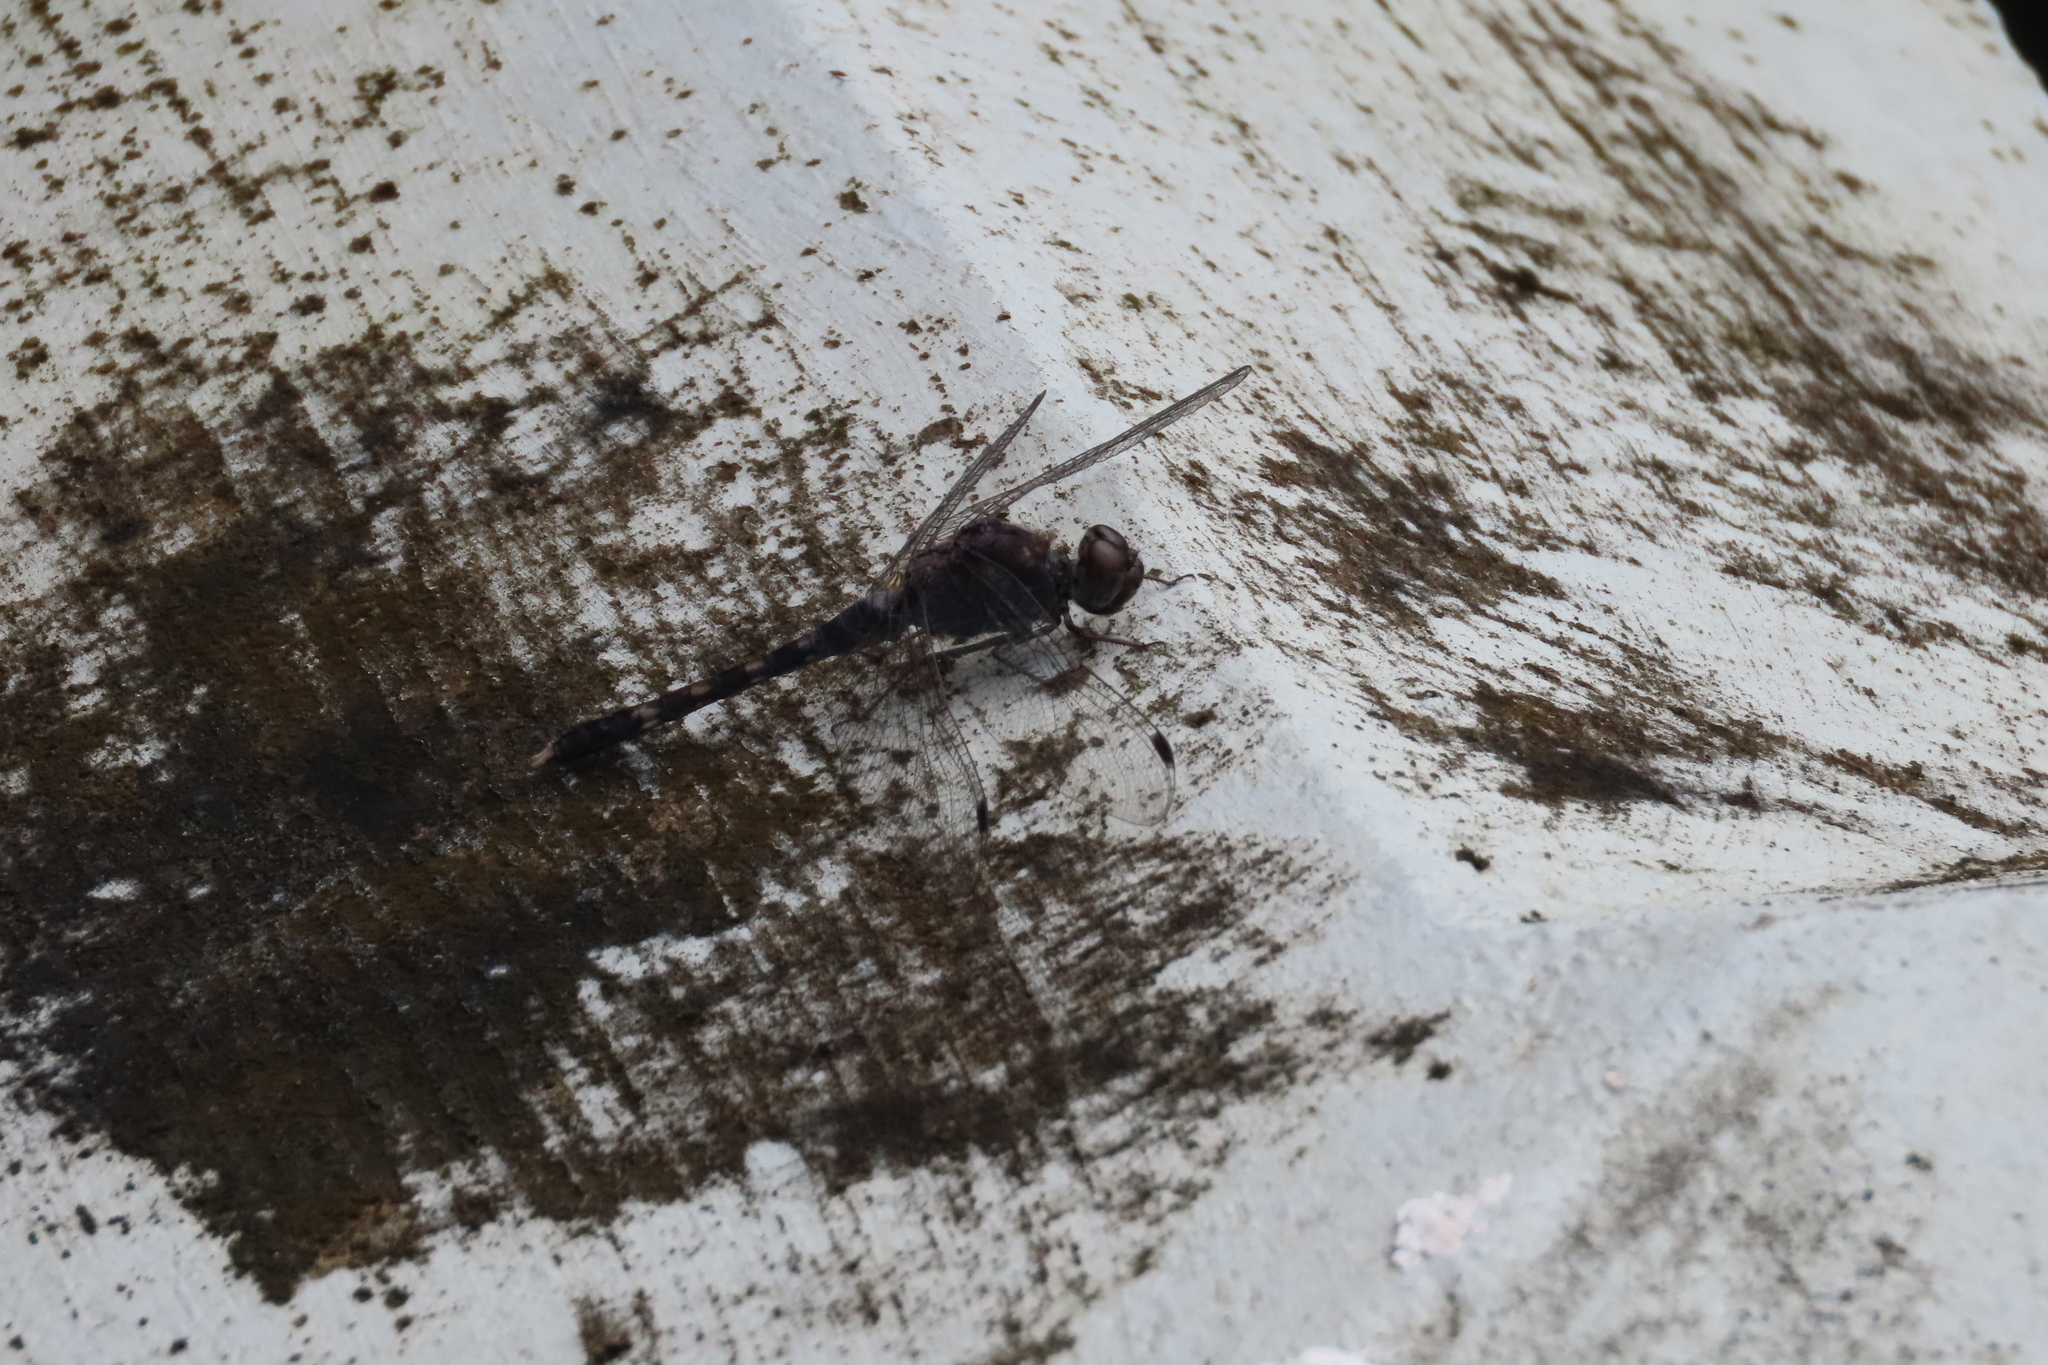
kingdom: Animalia
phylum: Arthropoda
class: Insecta
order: Odonata
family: Libellulidae
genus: Bradinopyga
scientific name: Bradinopyga geminata
